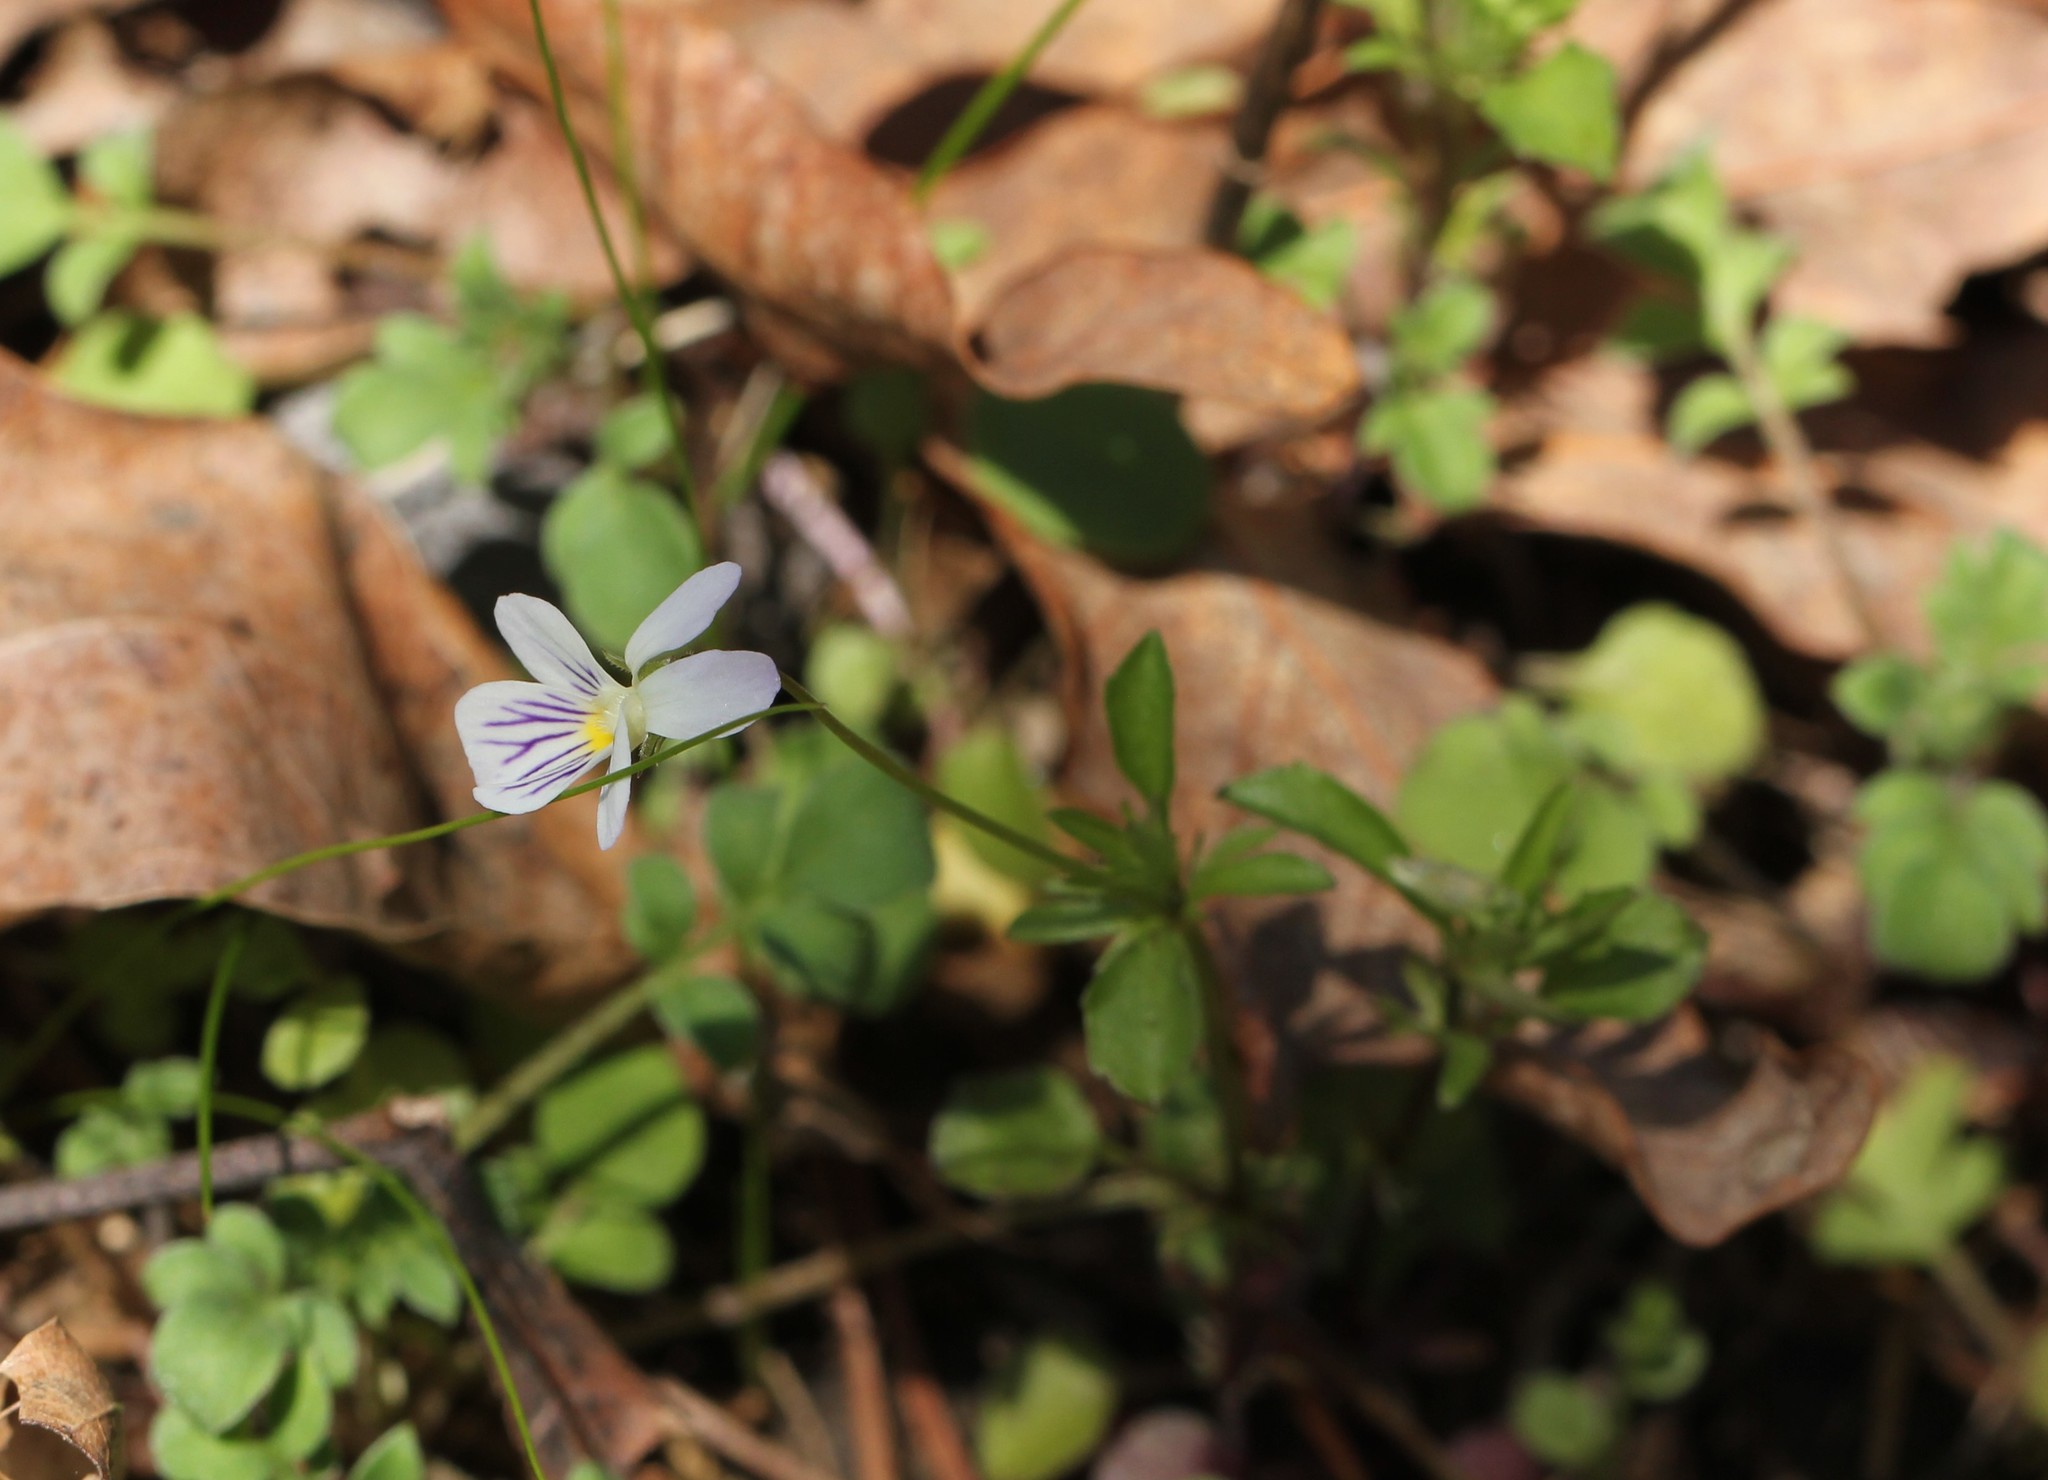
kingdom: Plantae
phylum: Tracheophyta
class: Magnoliopsida
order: Malpighiales
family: Violaceae
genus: Viola
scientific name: Viola rafinesquei
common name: American field pansy
